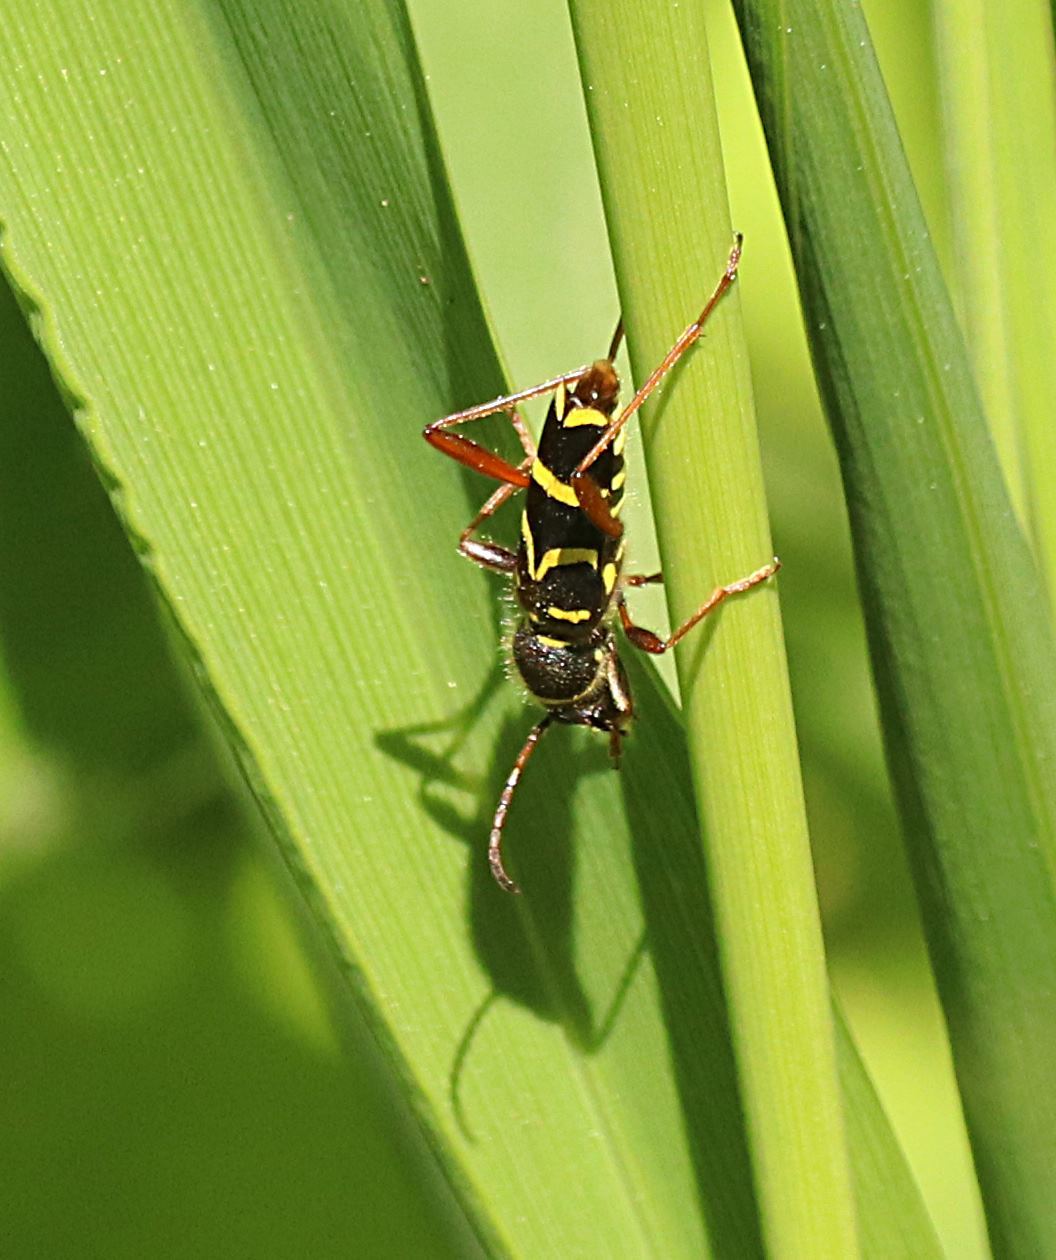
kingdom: Animalia
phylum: Arthropoda
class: Insecta
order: Coleoptera
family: Cerambycidae
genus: Clytus
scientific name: Clytus arietis
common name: Wasp beetle
